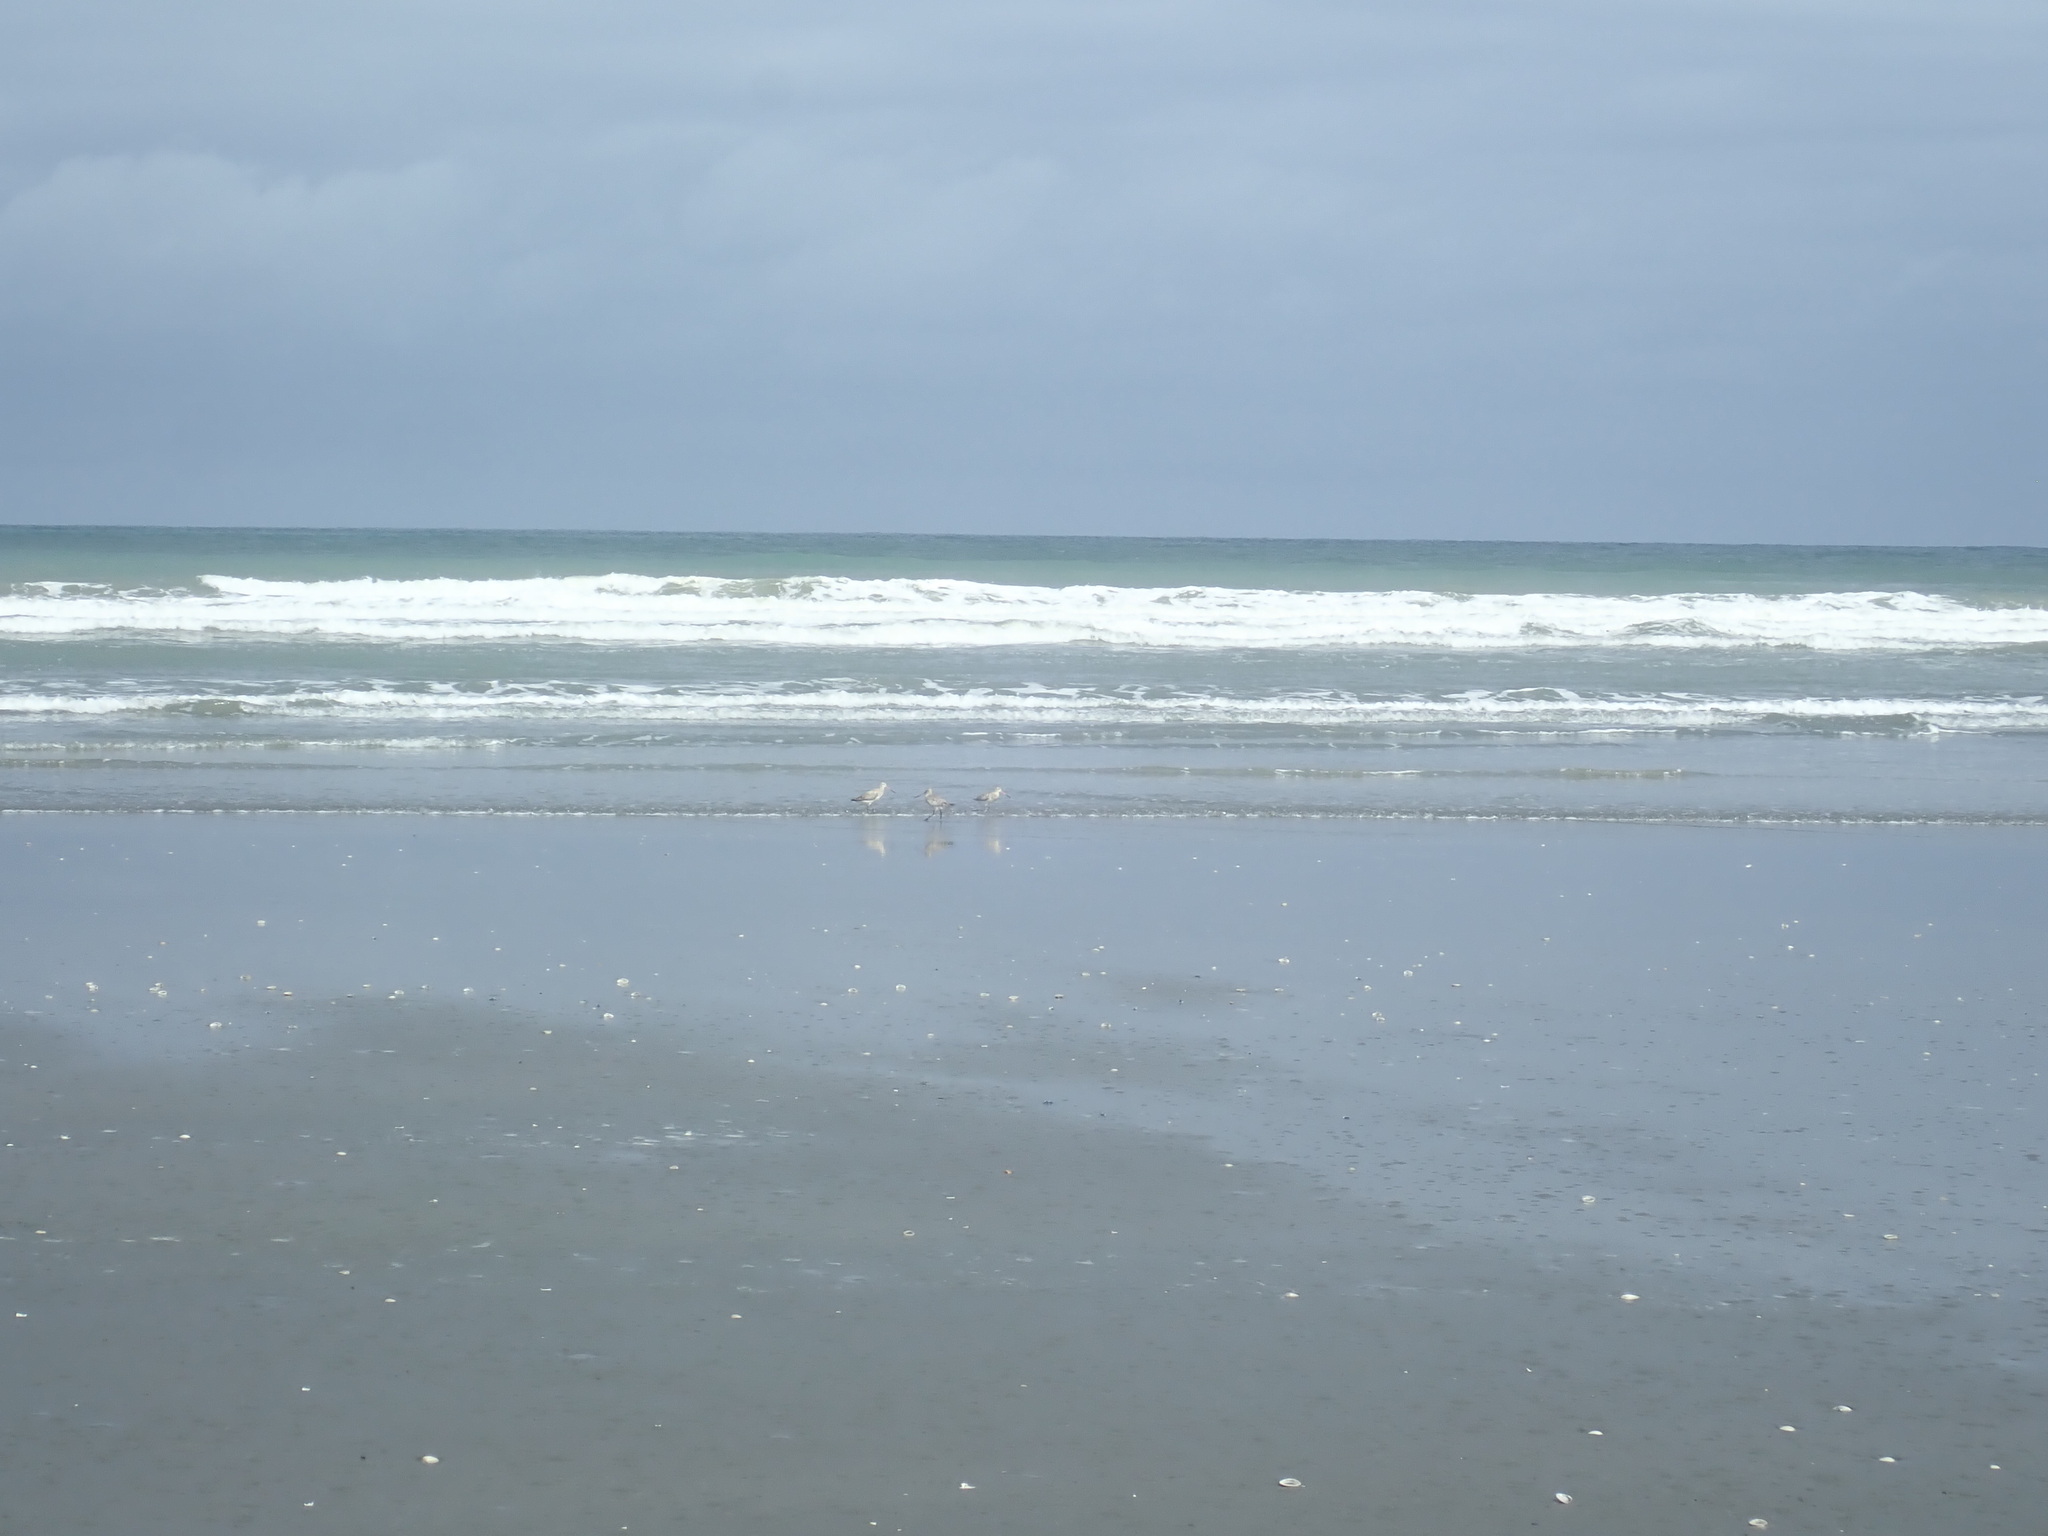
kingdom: Animalia
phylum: Chordata
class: Aves
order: Charadriiformes
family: Scolopacidae
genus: Limosa
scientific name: Limosa lapponica
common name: Bar-tailed godwit
